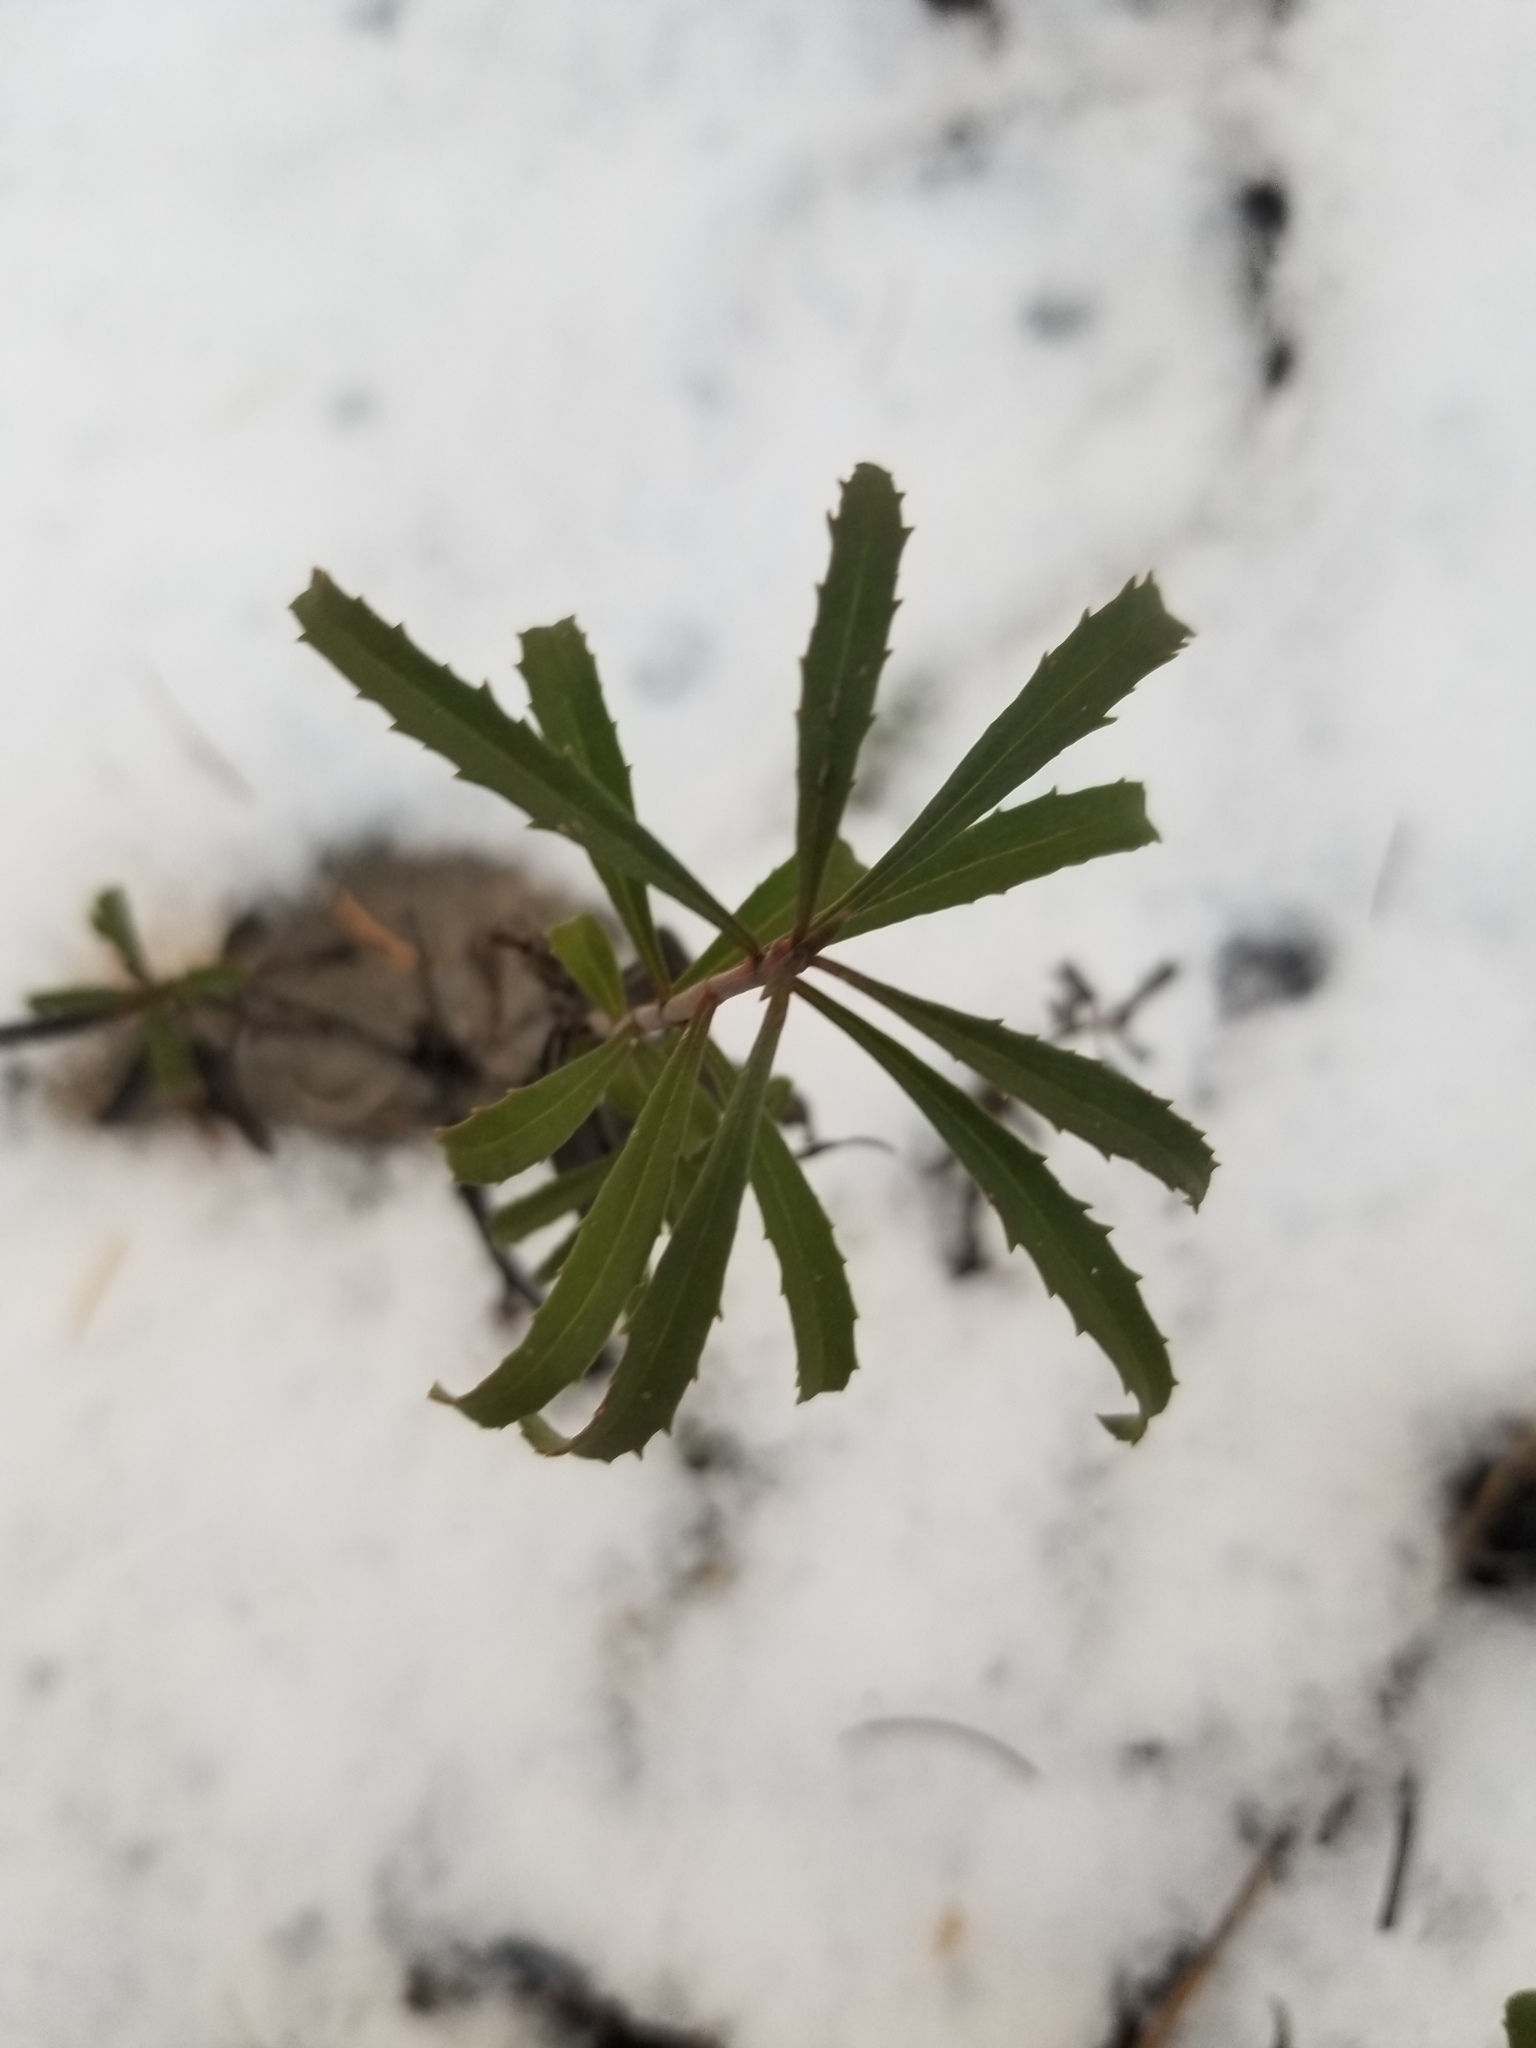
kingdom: Plantae
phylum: Tracheophyta
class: Magnoliopsida
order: Lamiales
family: Plantaginaceae
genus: Penstemon
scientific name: Penstemon fruticosus
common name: Bush penstemon
